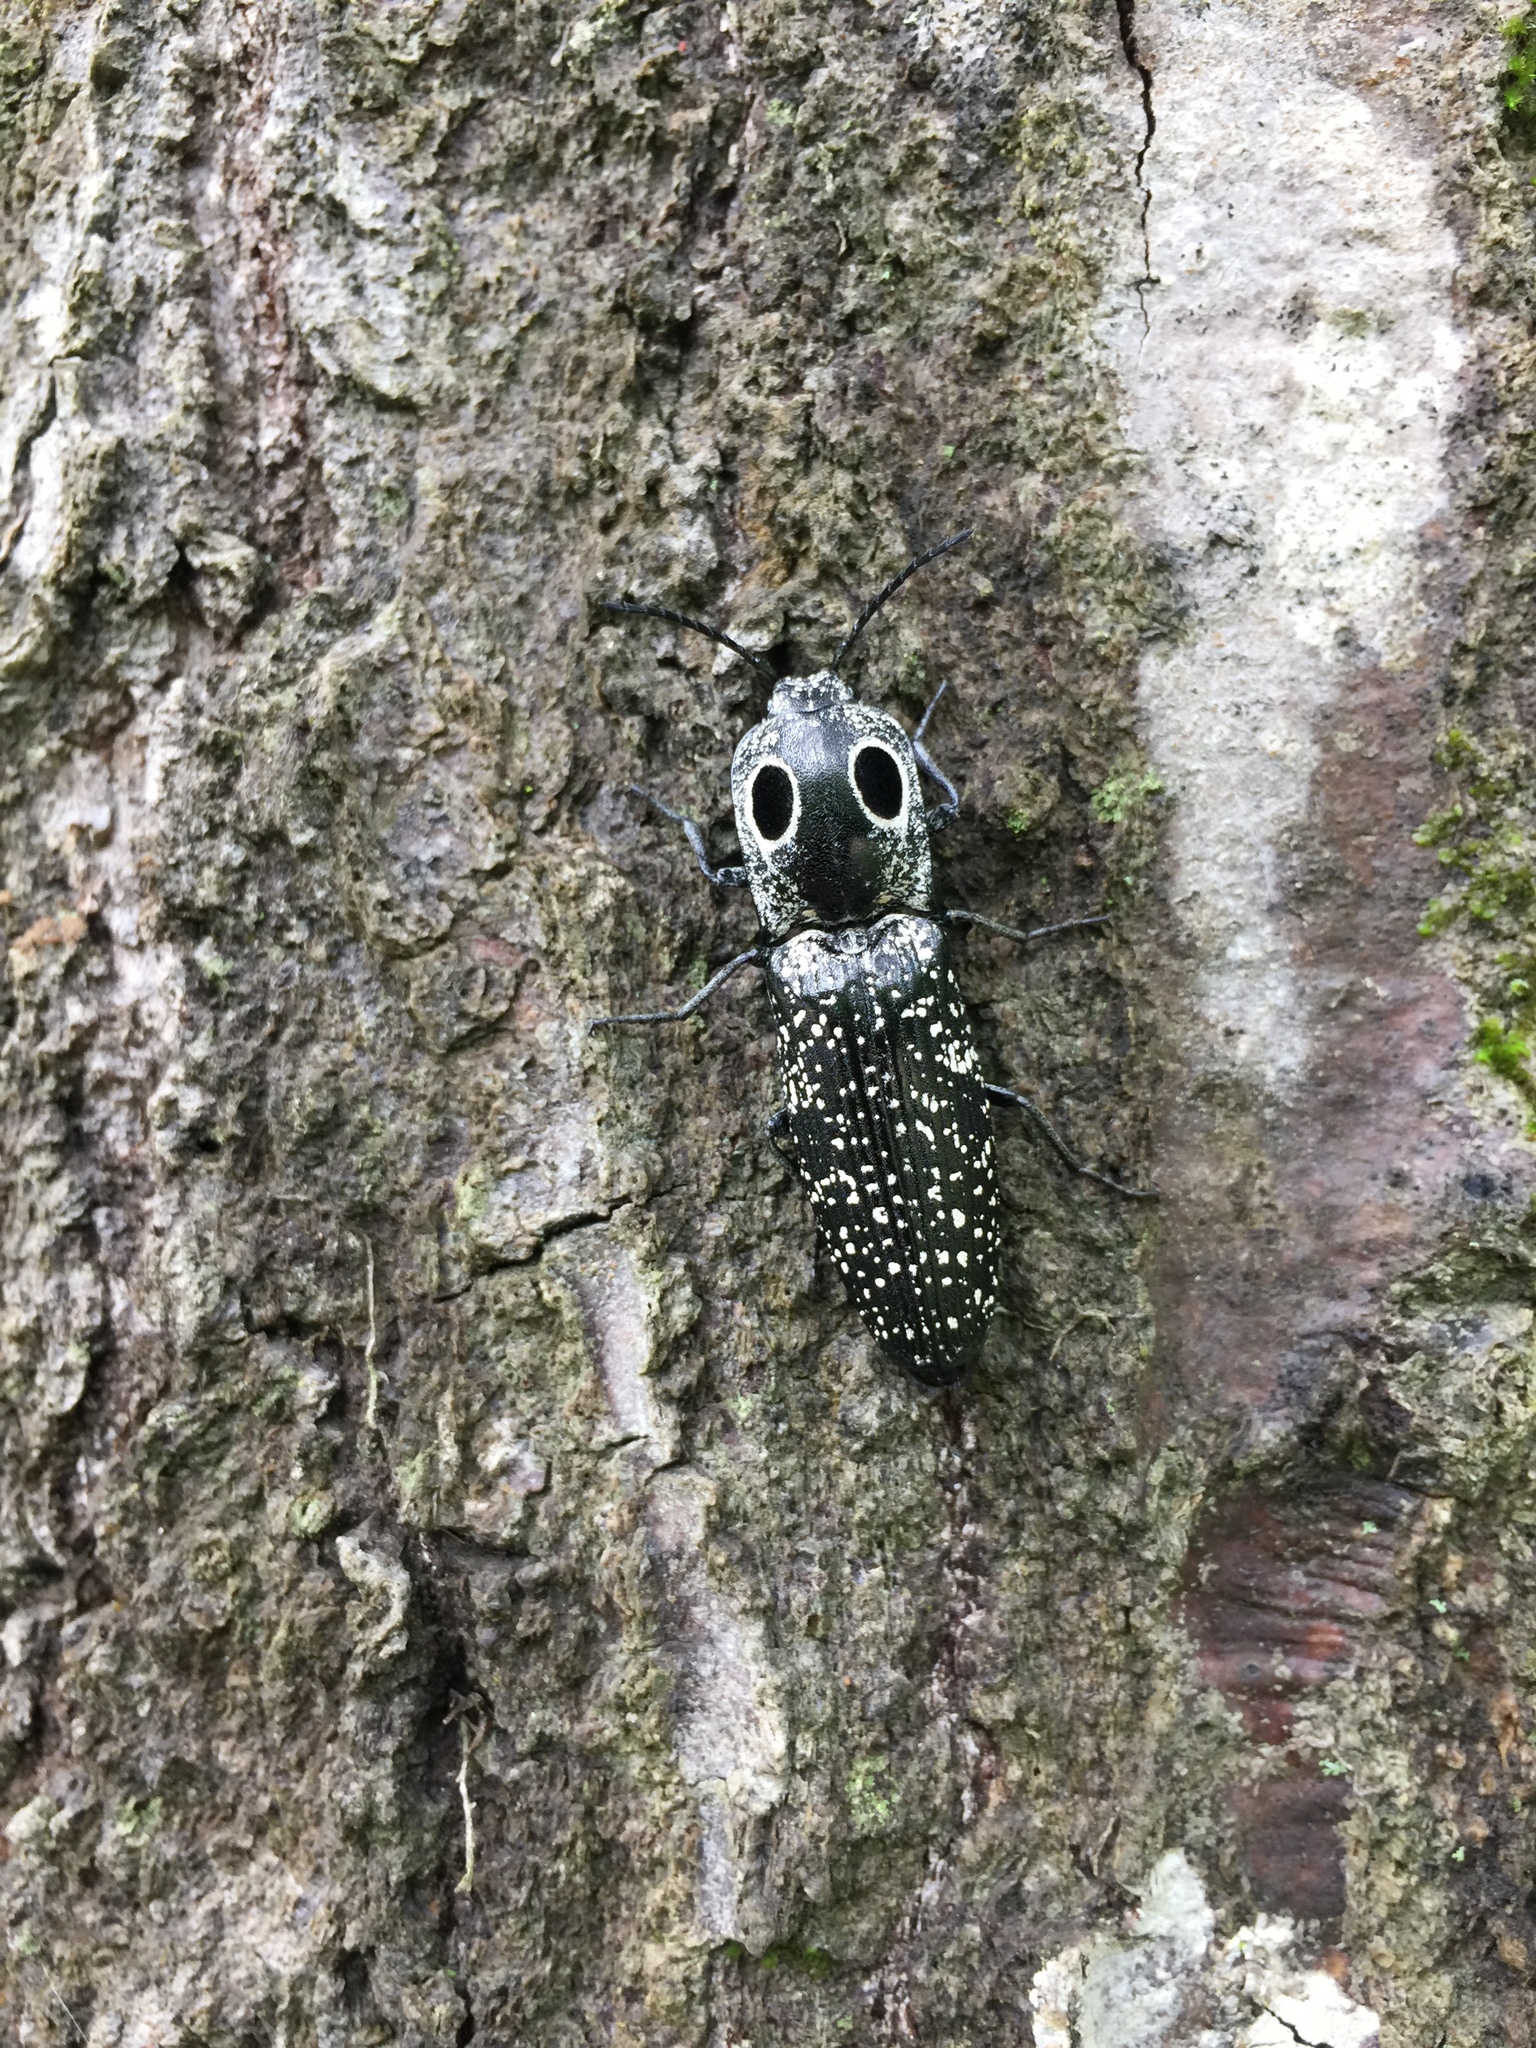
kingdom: Animalia
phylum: Arthropoda
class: Insecta
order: Coleoptera
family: Elateridae
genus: Alaus
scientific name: Alaus oculatus
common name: Eastern eyed click beetle
